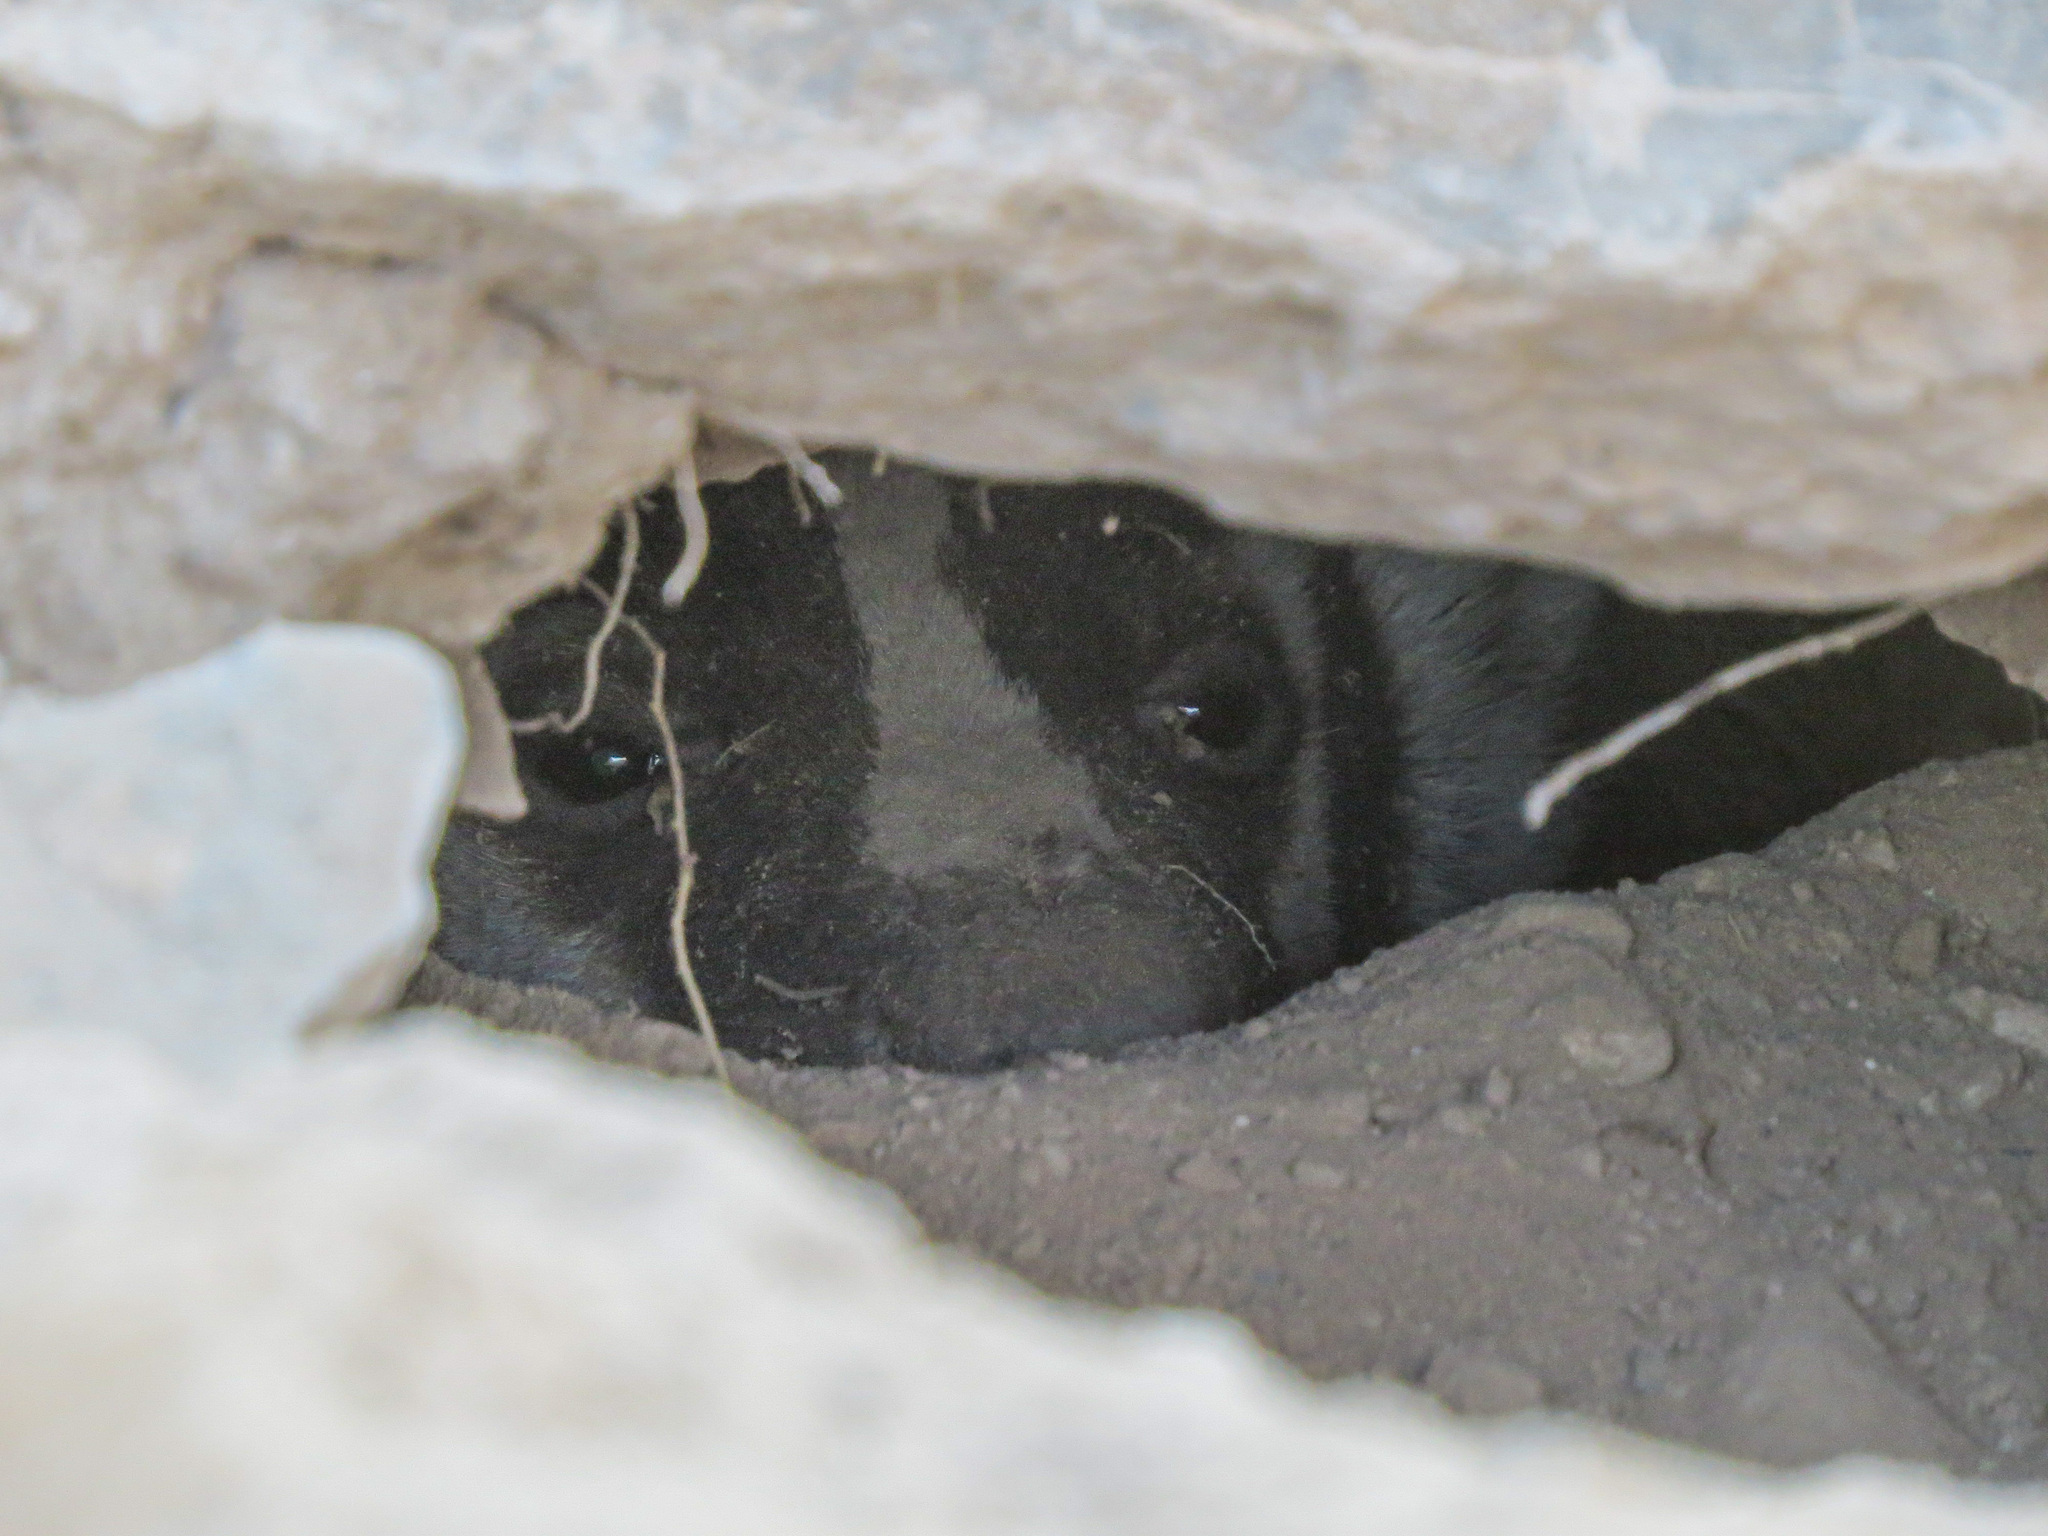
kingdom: Animalia
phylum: Chordata
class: Mammalia
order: Carnivora
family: Mustelidae
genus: Taxidea
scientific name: Taxidea taxus
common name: American badger
